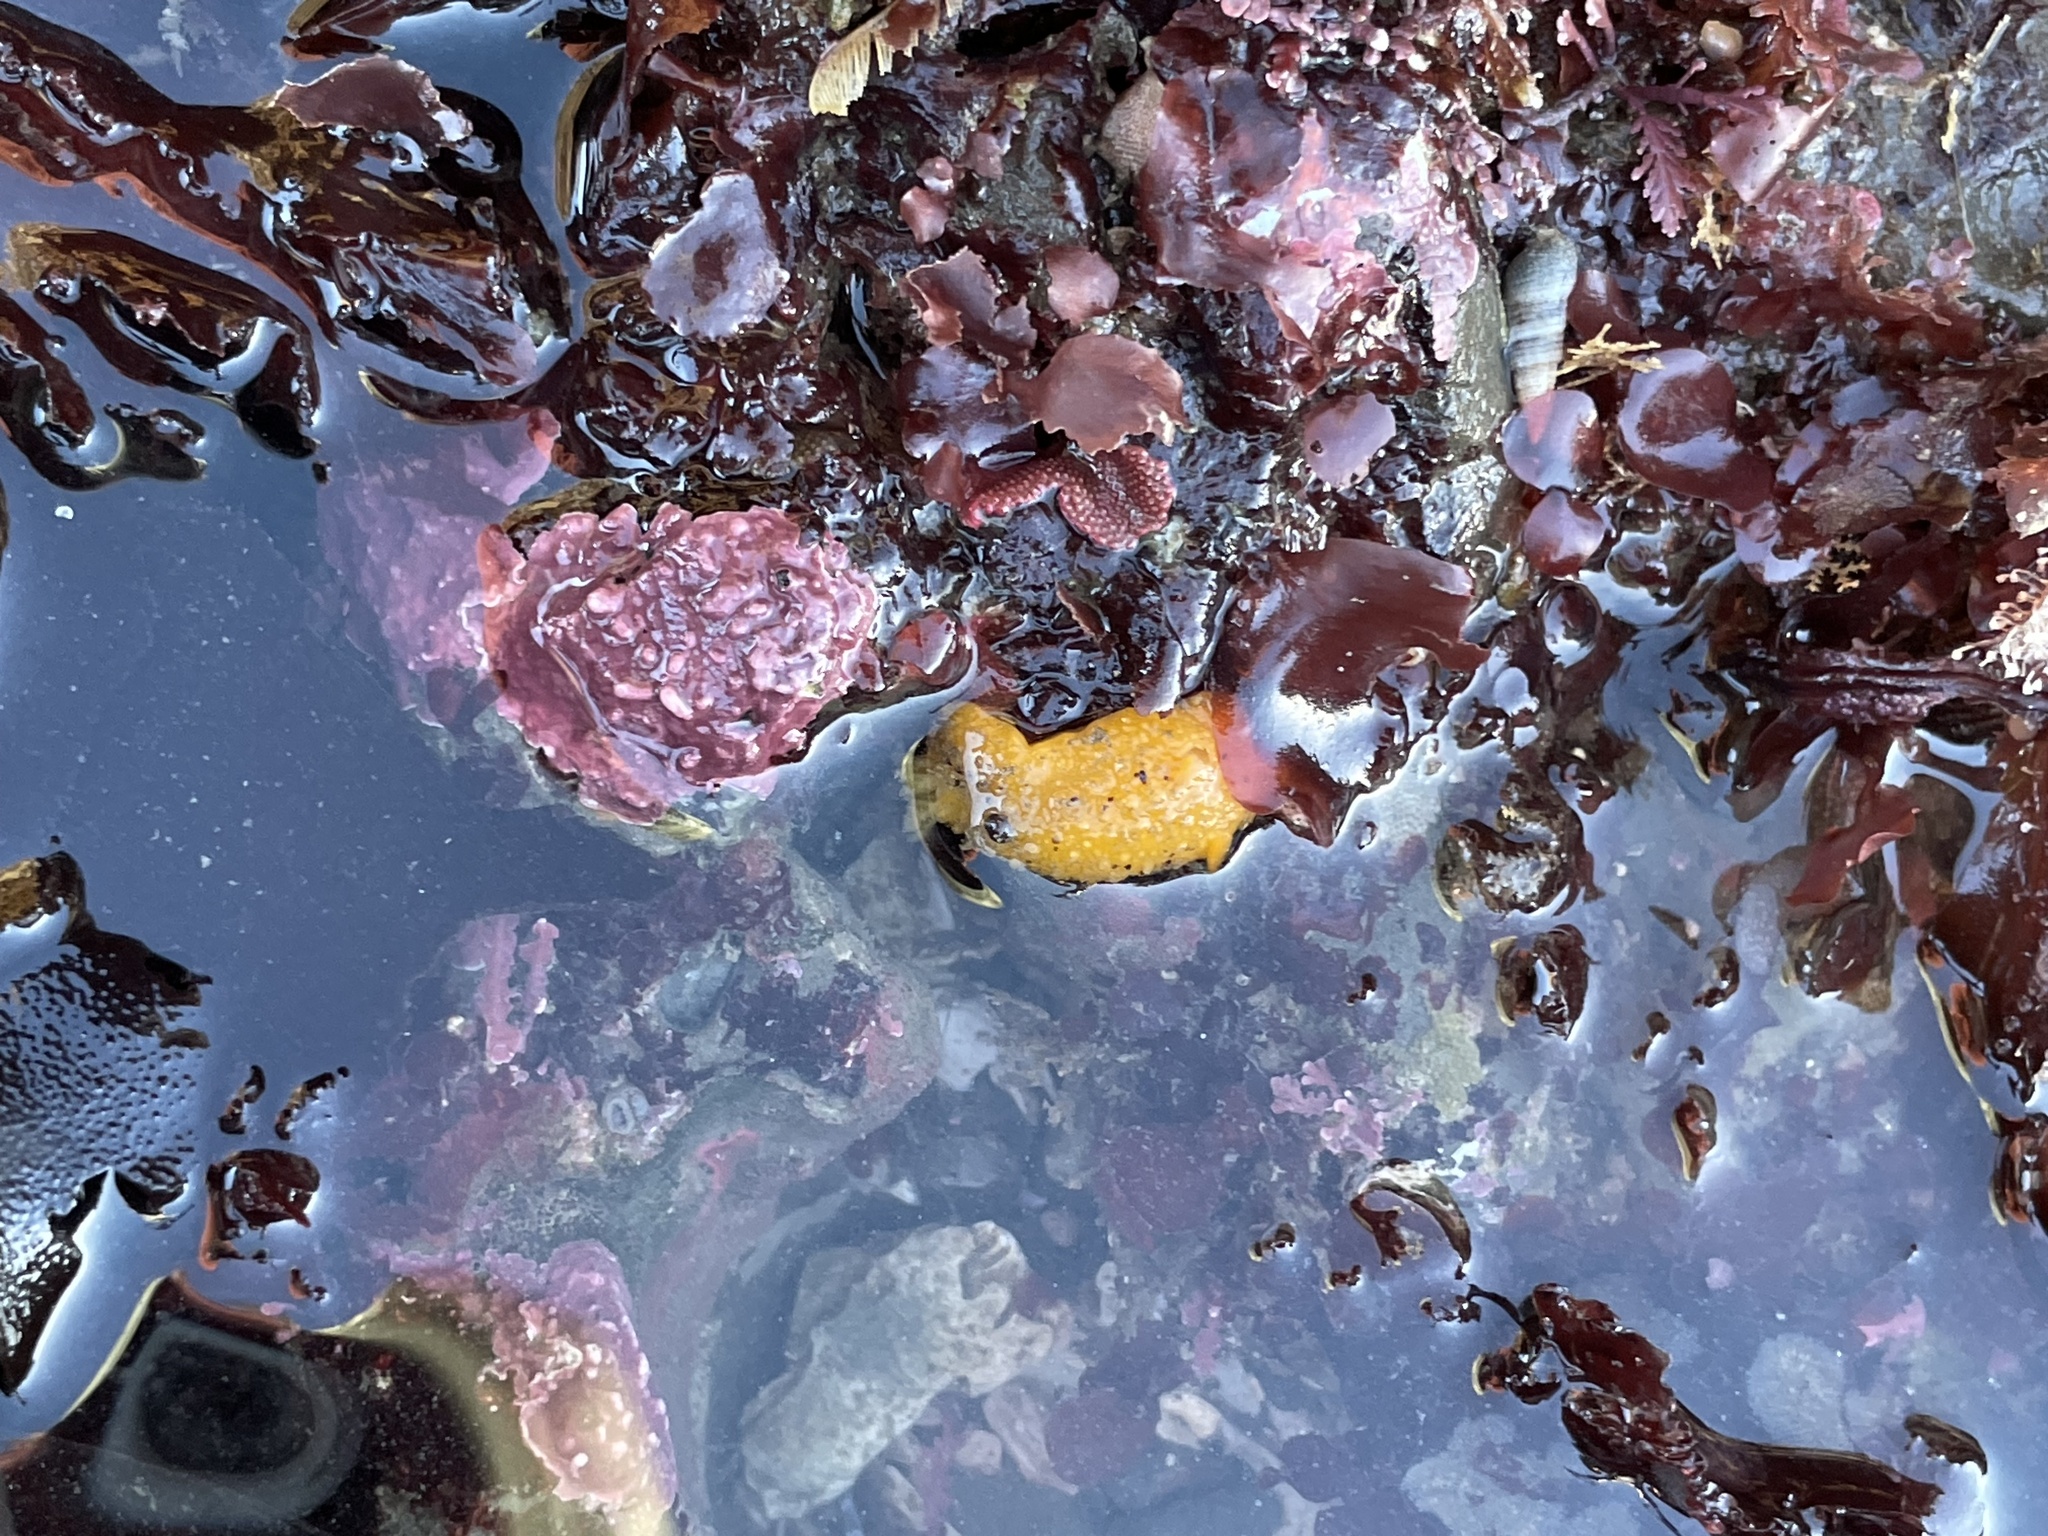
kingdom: Animalia
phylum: Mollusca
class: Gastropoda
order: Nudibranchia
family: Dorididae
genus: Doris
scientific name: Doris montereyensis
